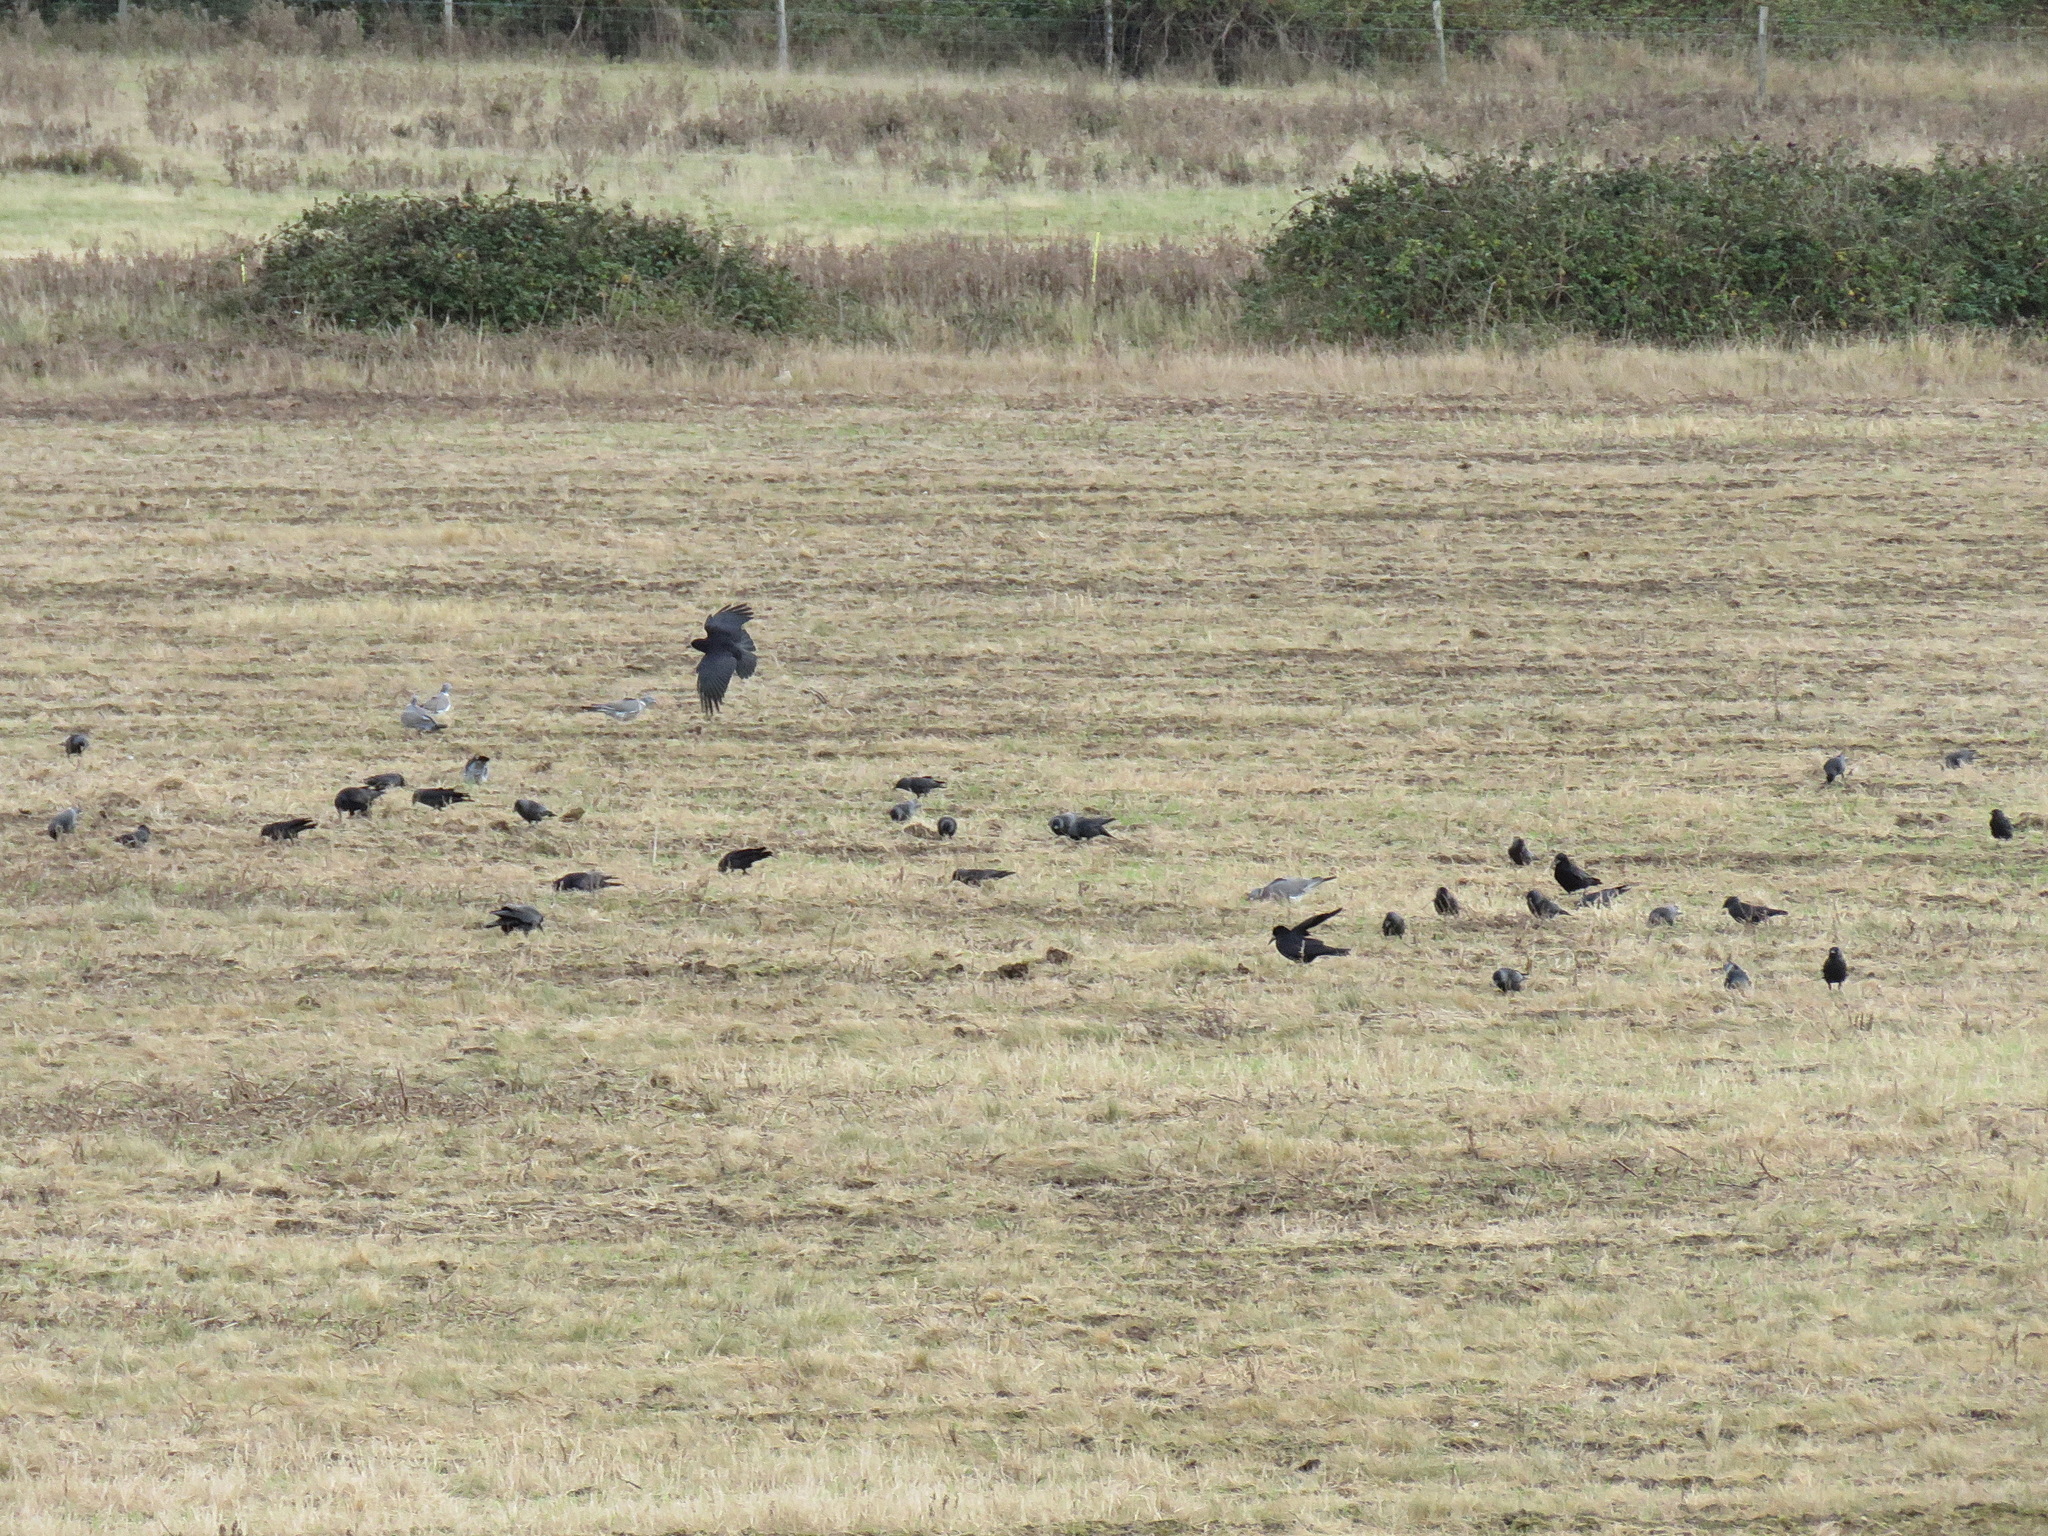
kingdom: Animalia
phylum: Chordata
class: Aves
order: Passeriformes
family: Corvidae
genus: Corvus
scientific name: Corvus frugilegus
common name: Rook
